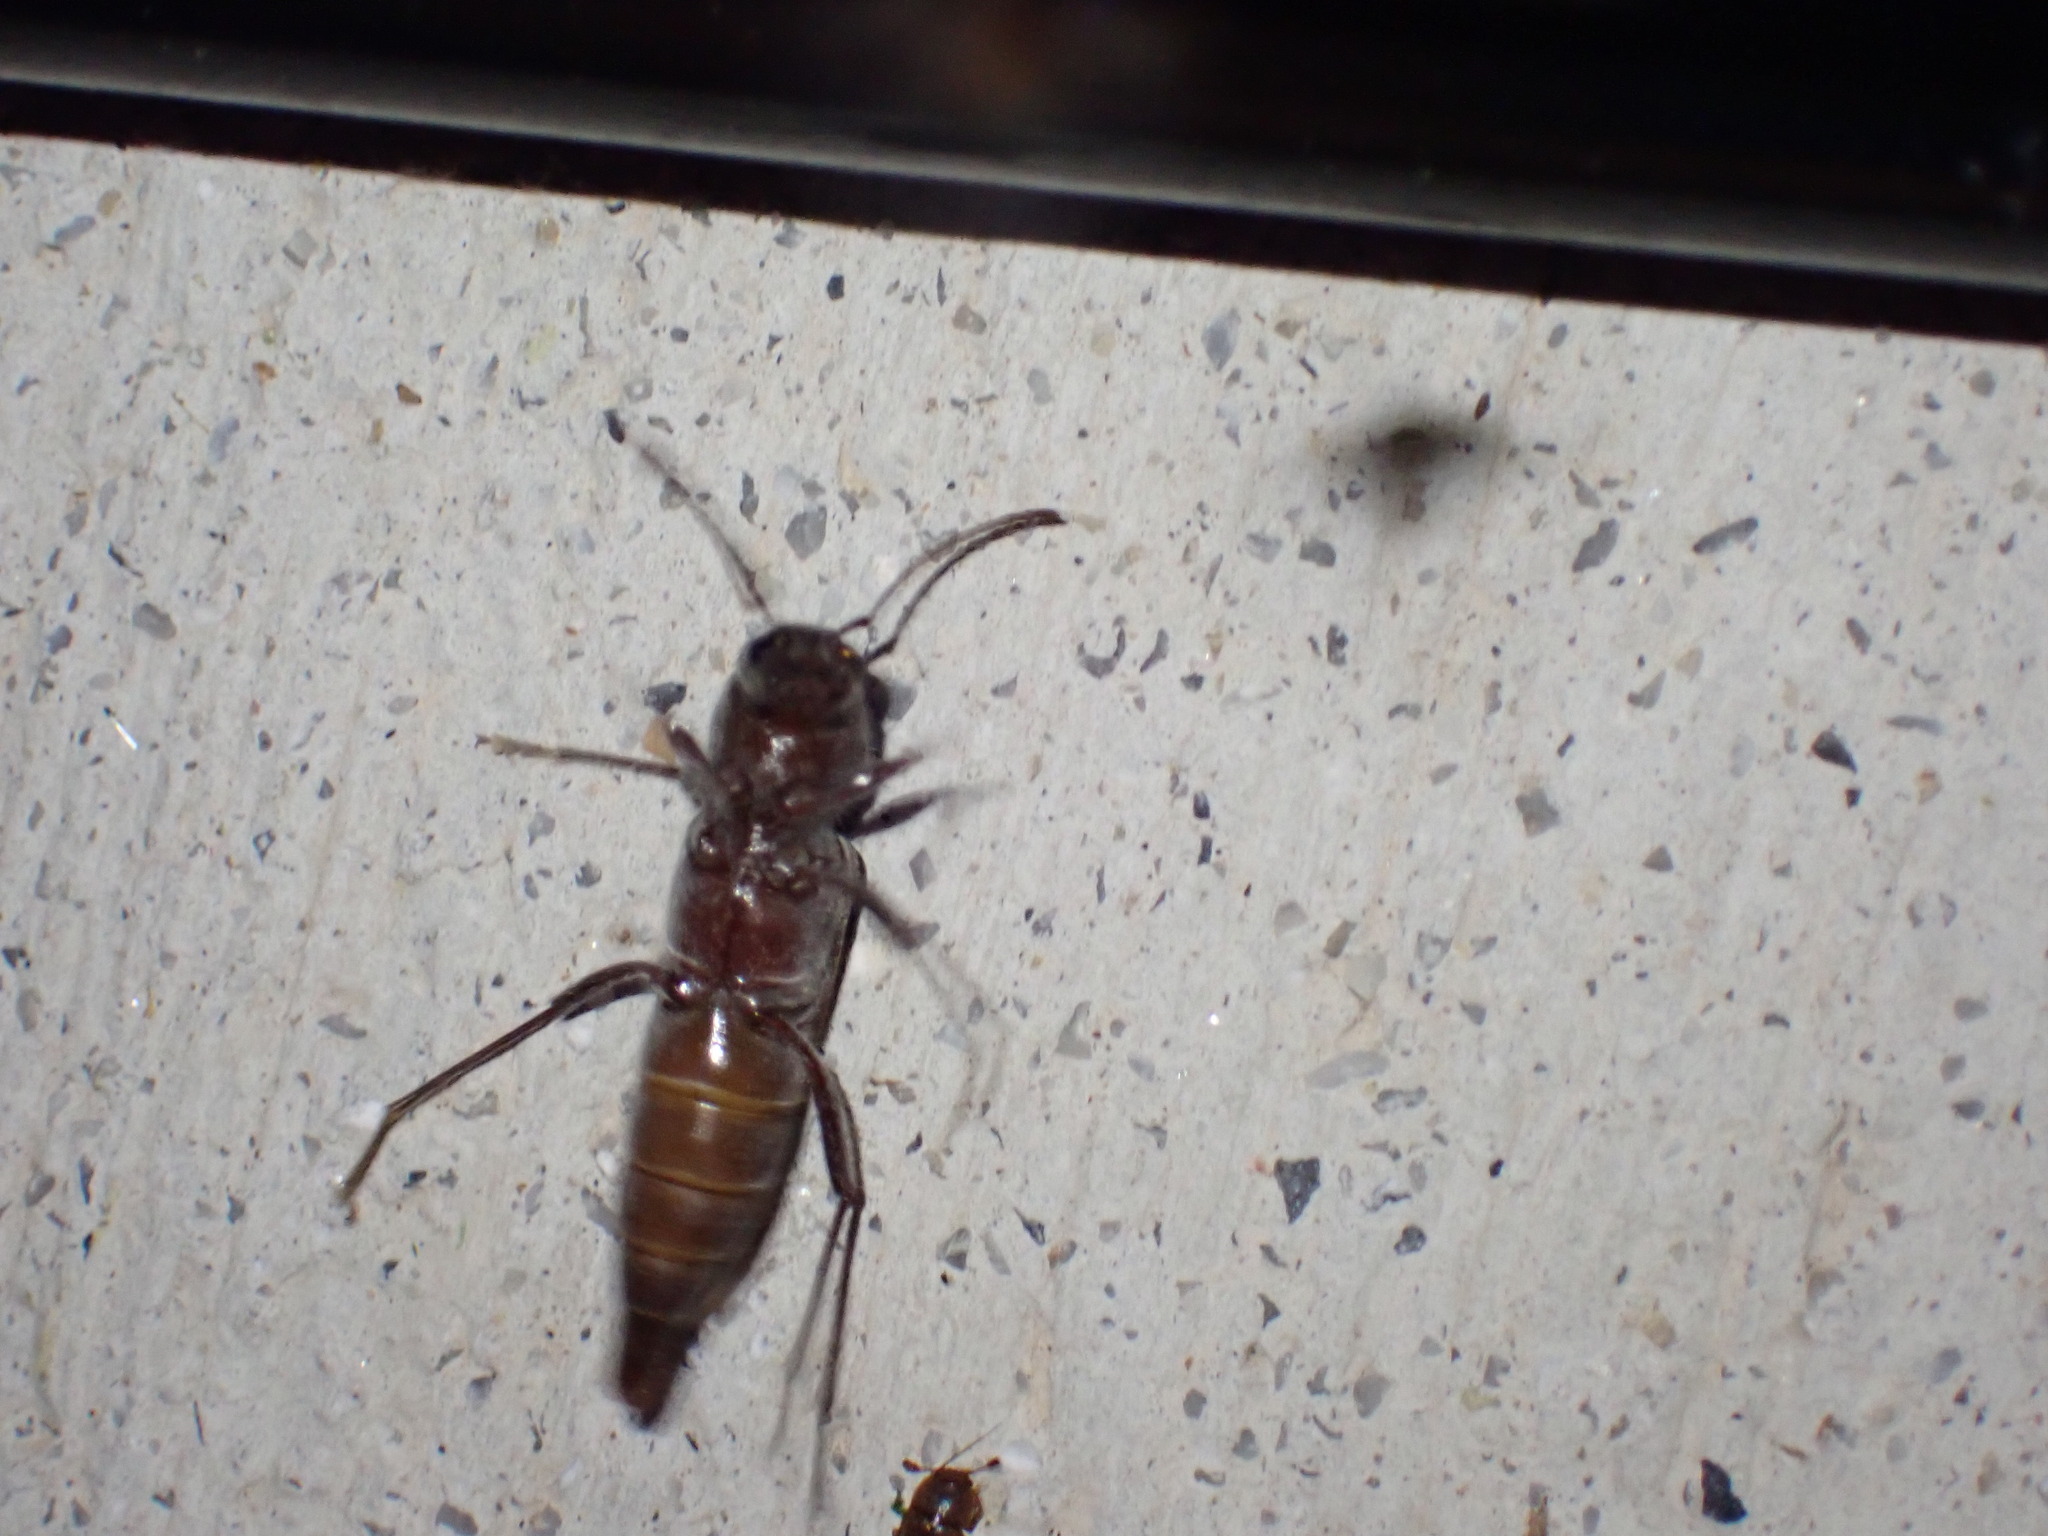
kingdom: Animalia
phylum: Arthropoda
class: Insecta
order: Coleoptera
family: Cerambycidae
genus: Xylotrechus
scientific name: Xylotrechus colonus
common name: Long-horned beetle
